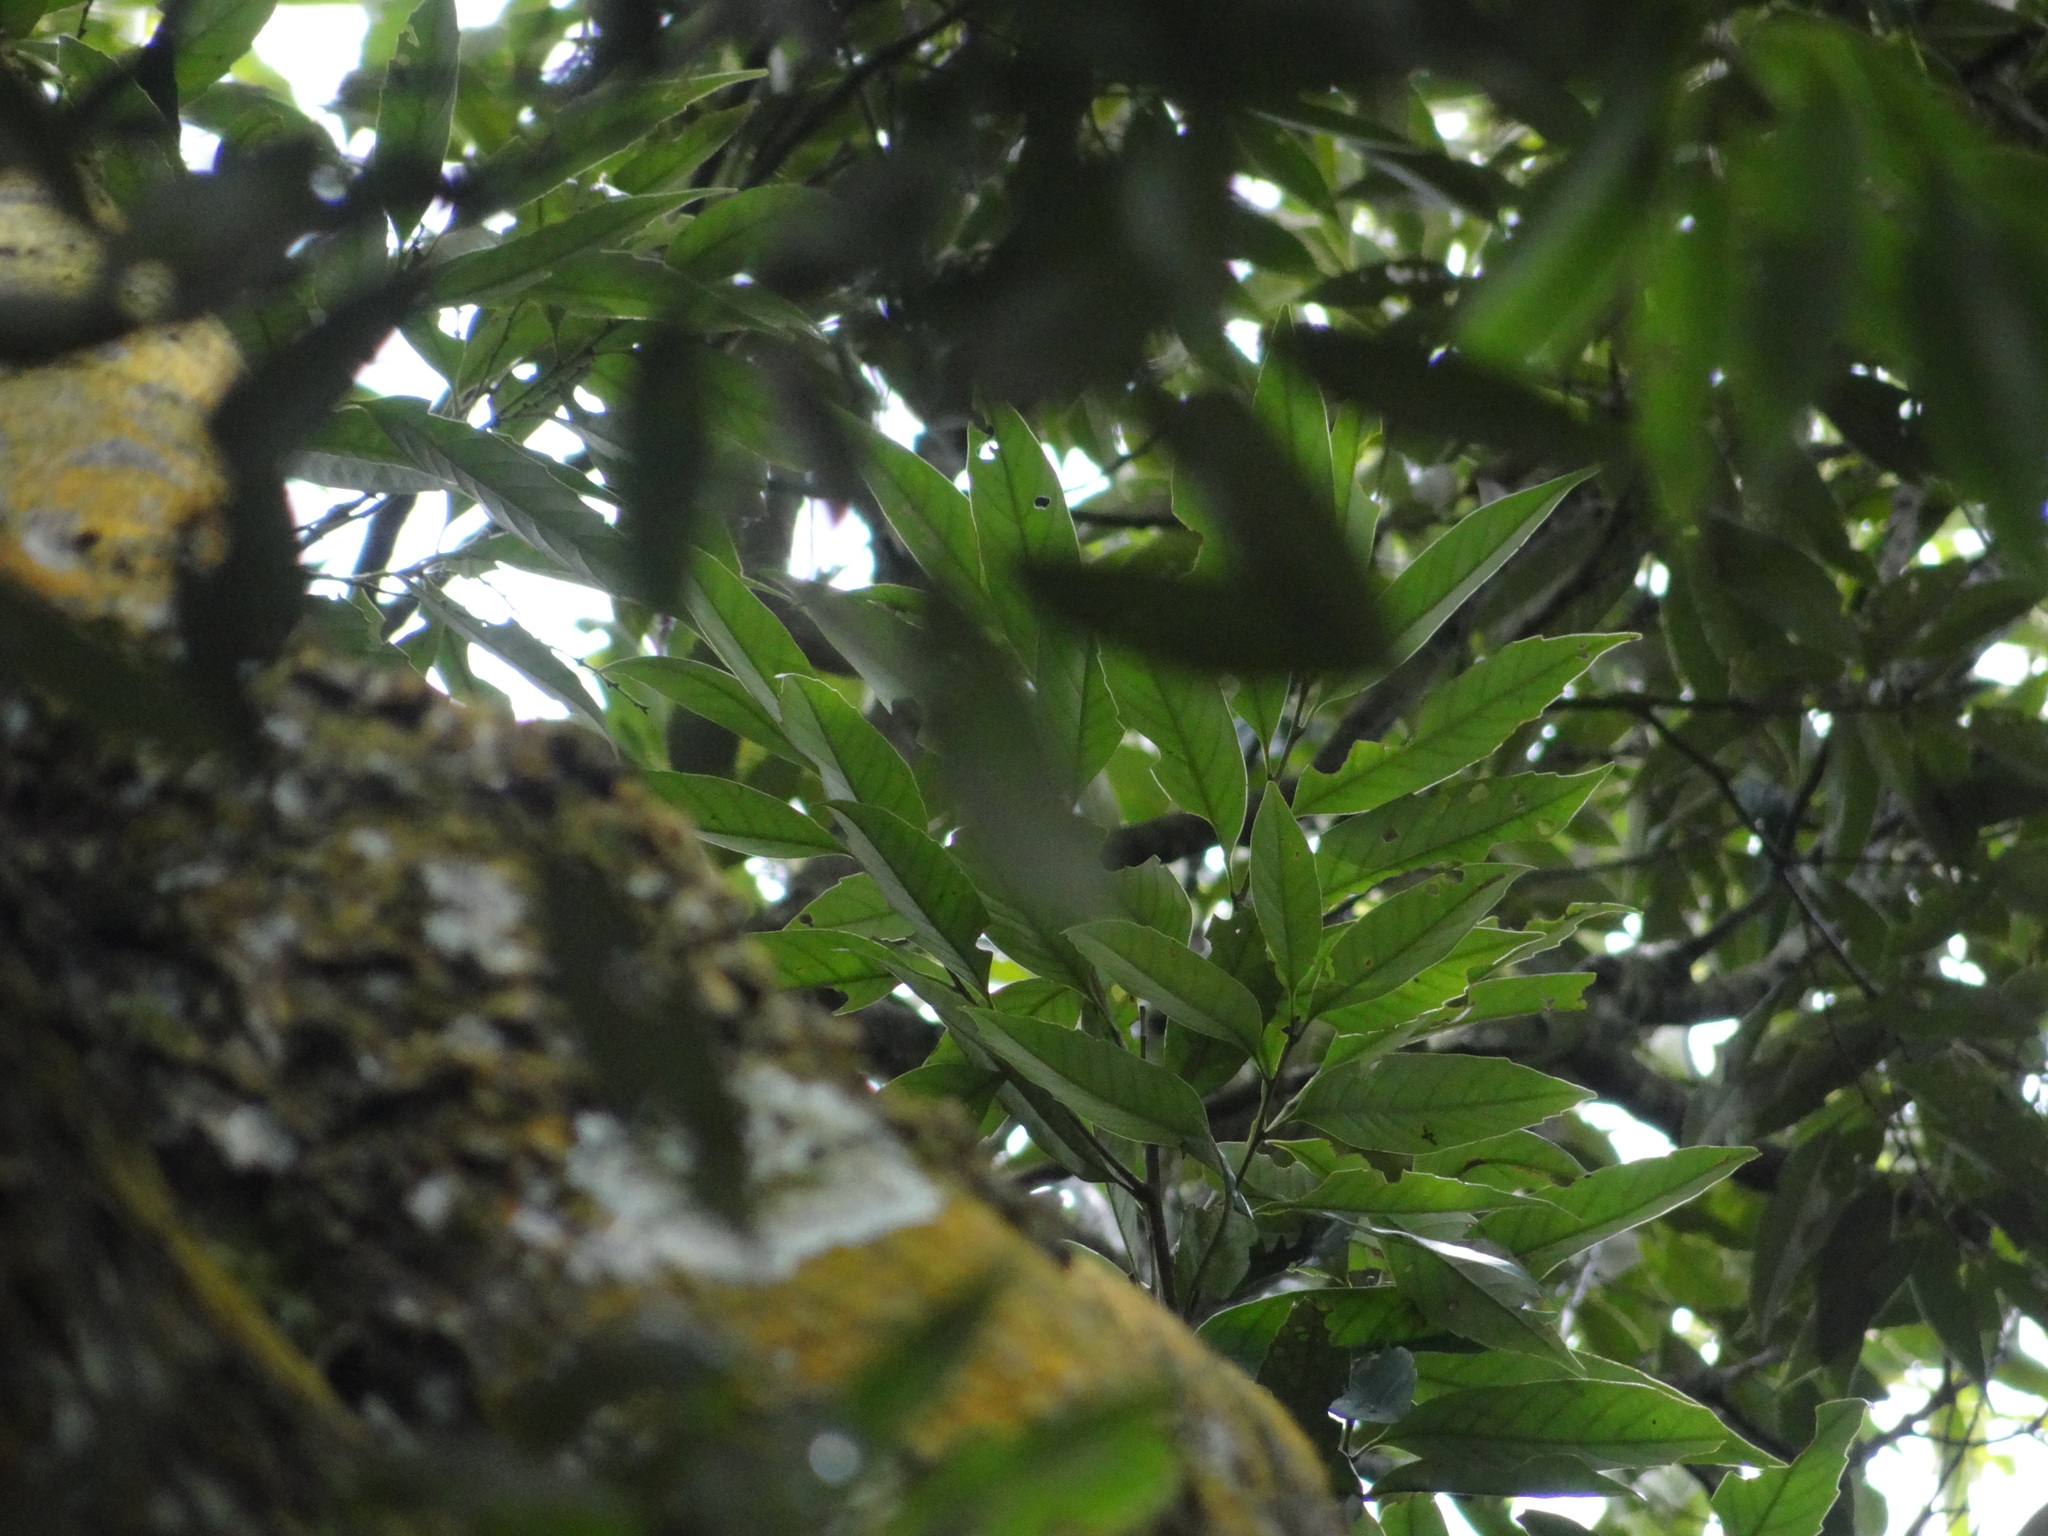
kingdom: Plantae
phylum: Tracheophyta
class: Magnoliopsida
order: Fagales
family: Fagaceae
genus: Castanopsis
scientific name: Castanopsis carlesii
